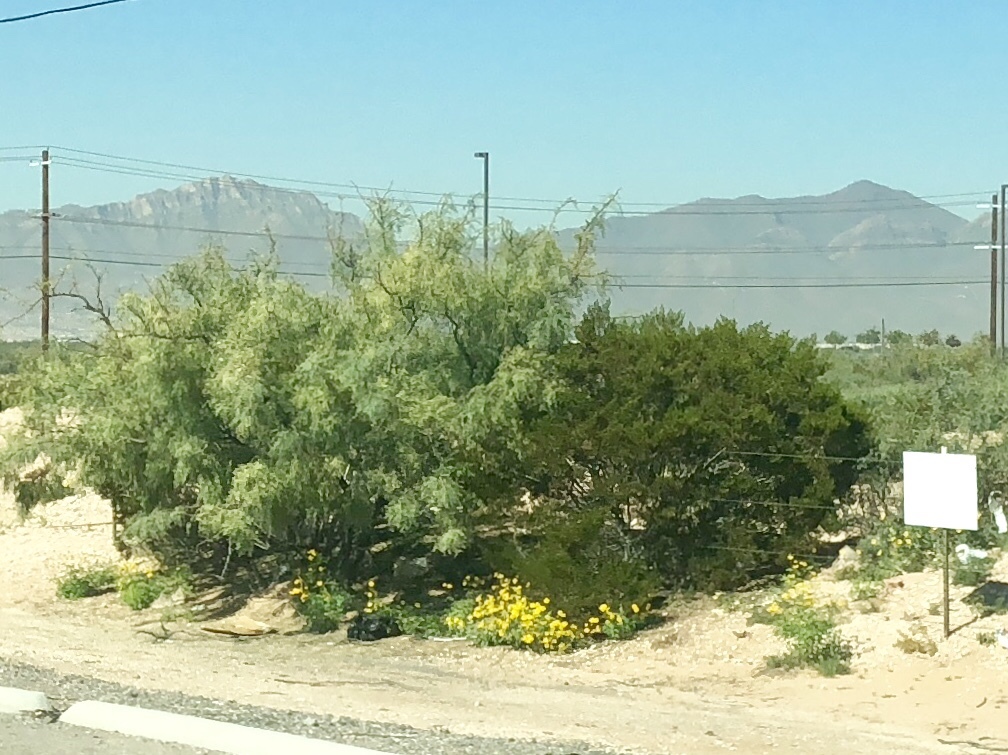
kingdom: Plantae
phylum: Tracheophyta
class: Magnoliopsida
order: Zygophyllales
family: Zygophyllaceae
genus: Larrea
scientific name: Larrea tridentata
